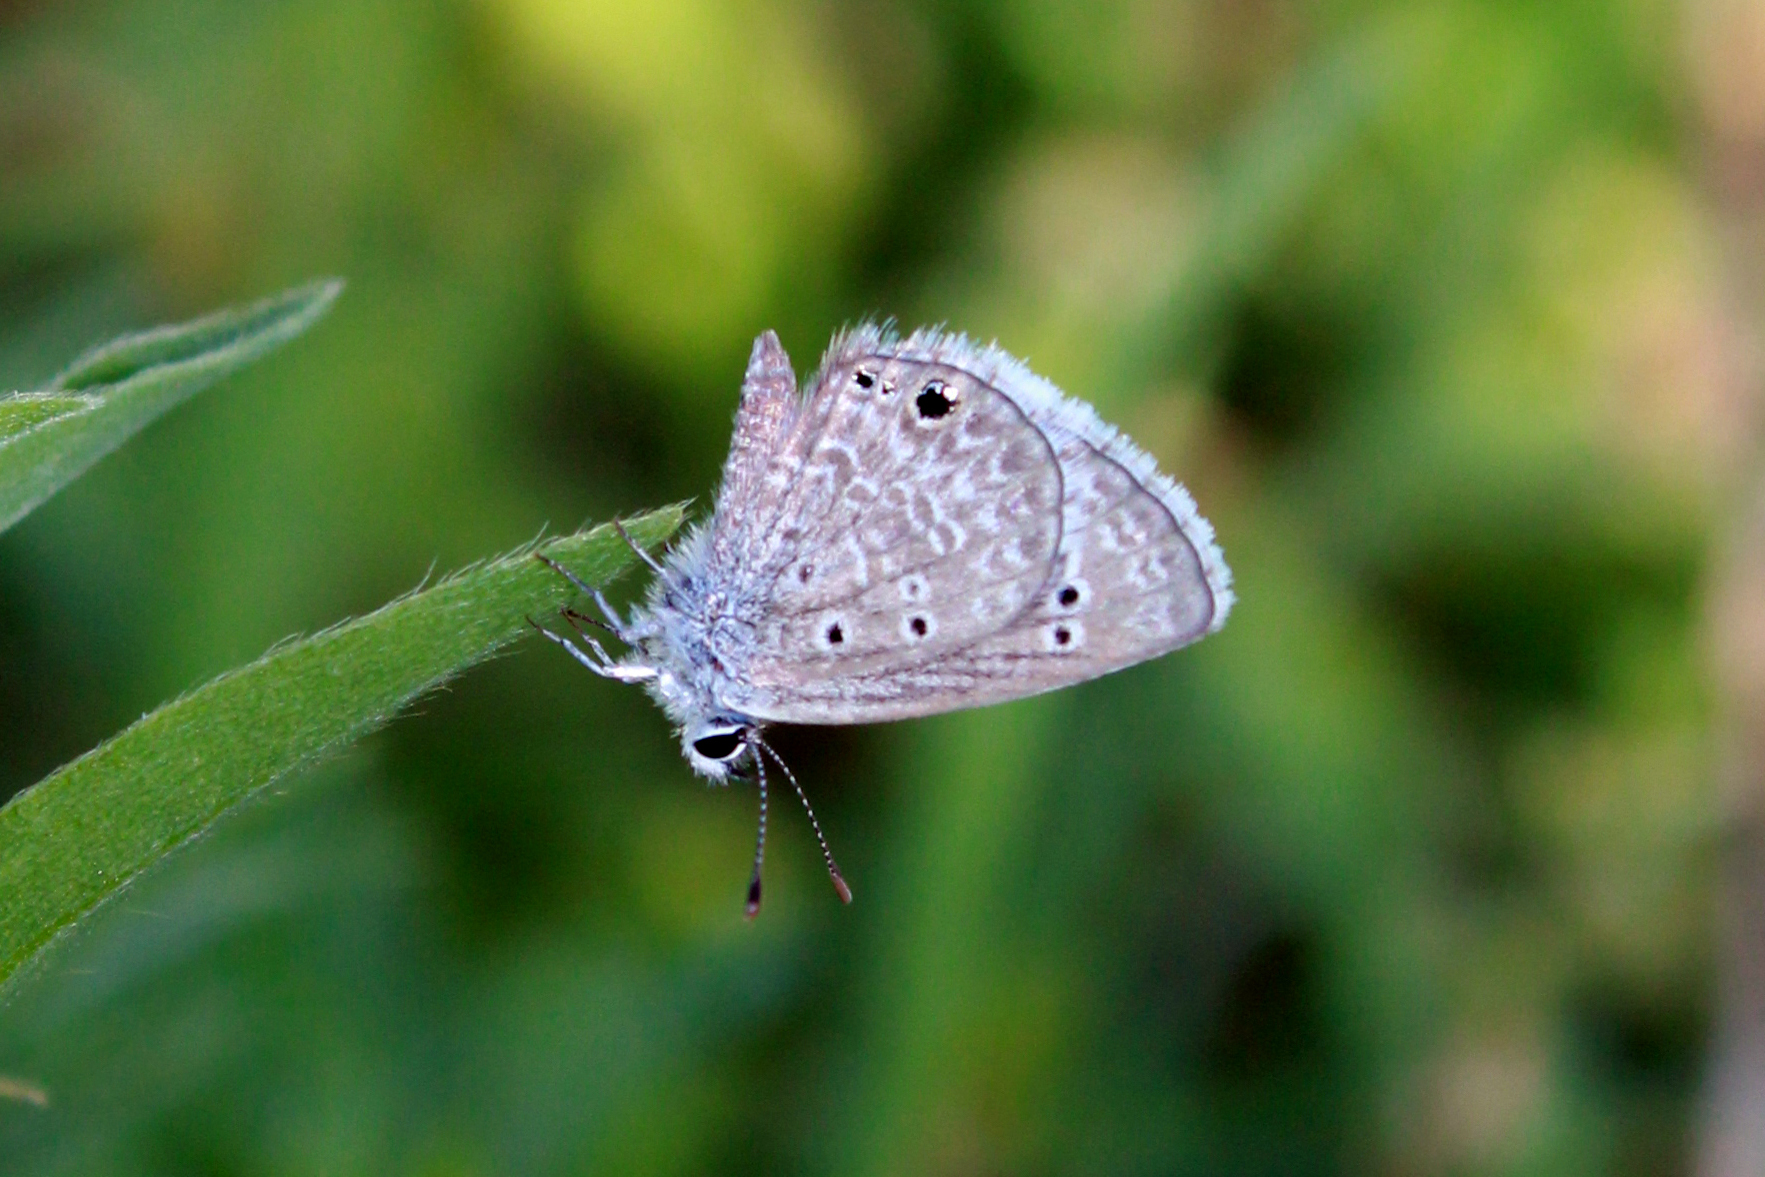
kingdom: Animalia
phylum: Arthropoda
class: Insecta
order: Lepidoptera
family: Lycaenidae
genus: Echinargus
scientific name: Echinargus isola
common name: Reakirt's blue
